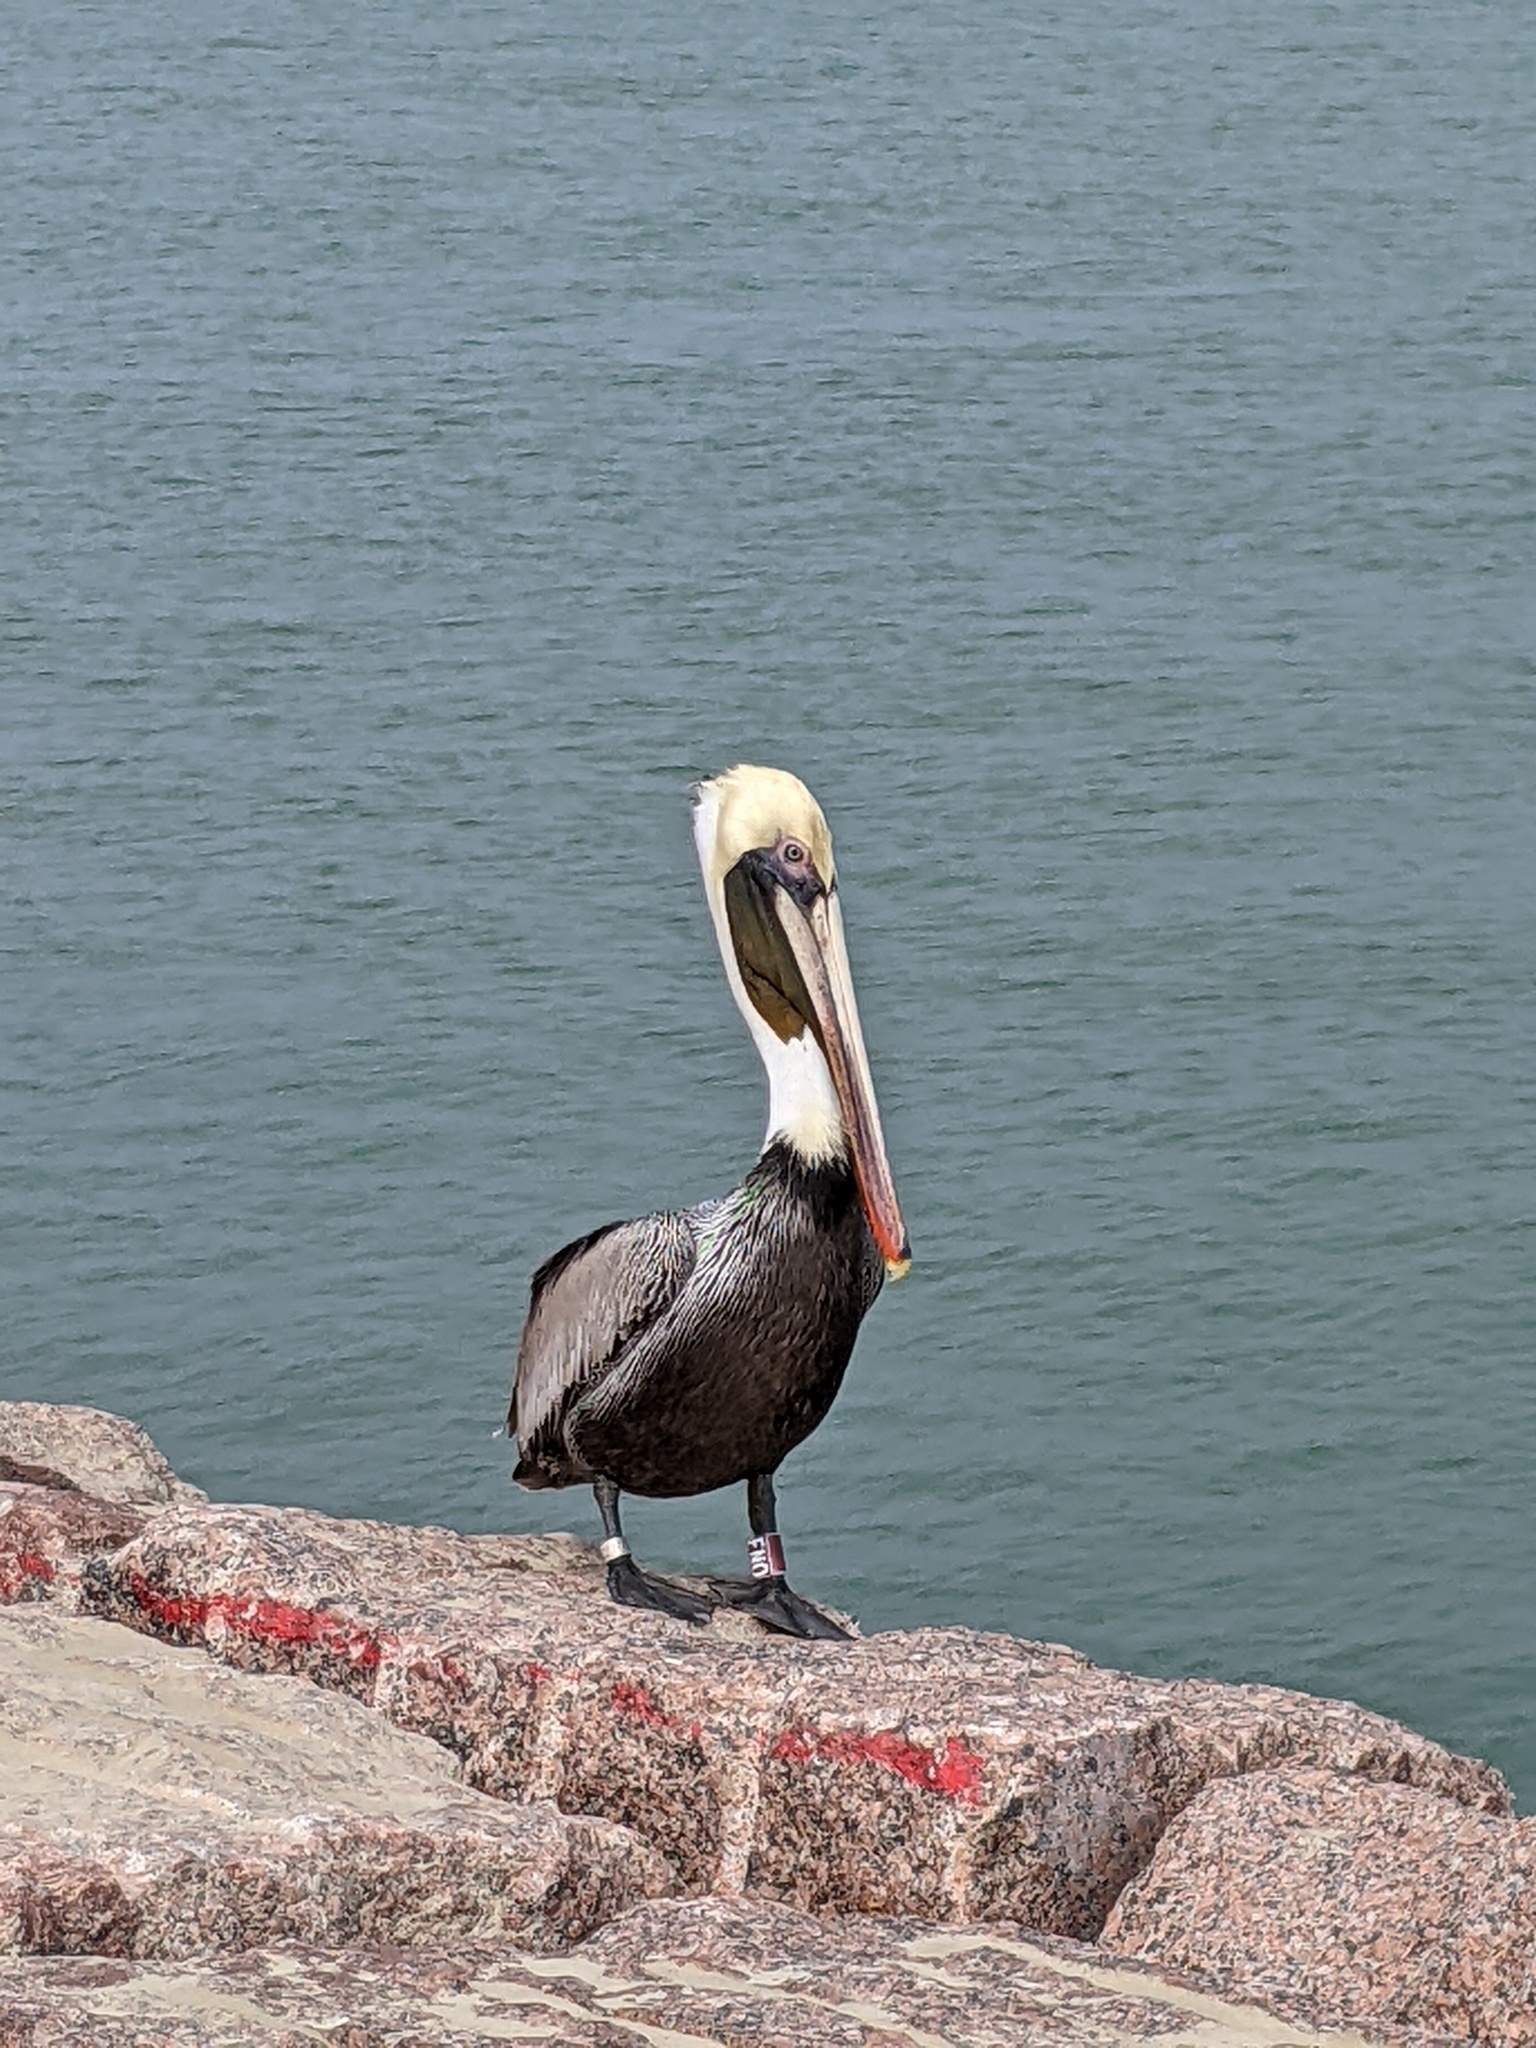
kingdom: Animalia
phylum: Chordata
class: Aves
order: Pelecaniformes
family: Pelecanidae
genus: Pelecanus
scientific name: Pelecanus occidentalis
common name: Brown pelican
